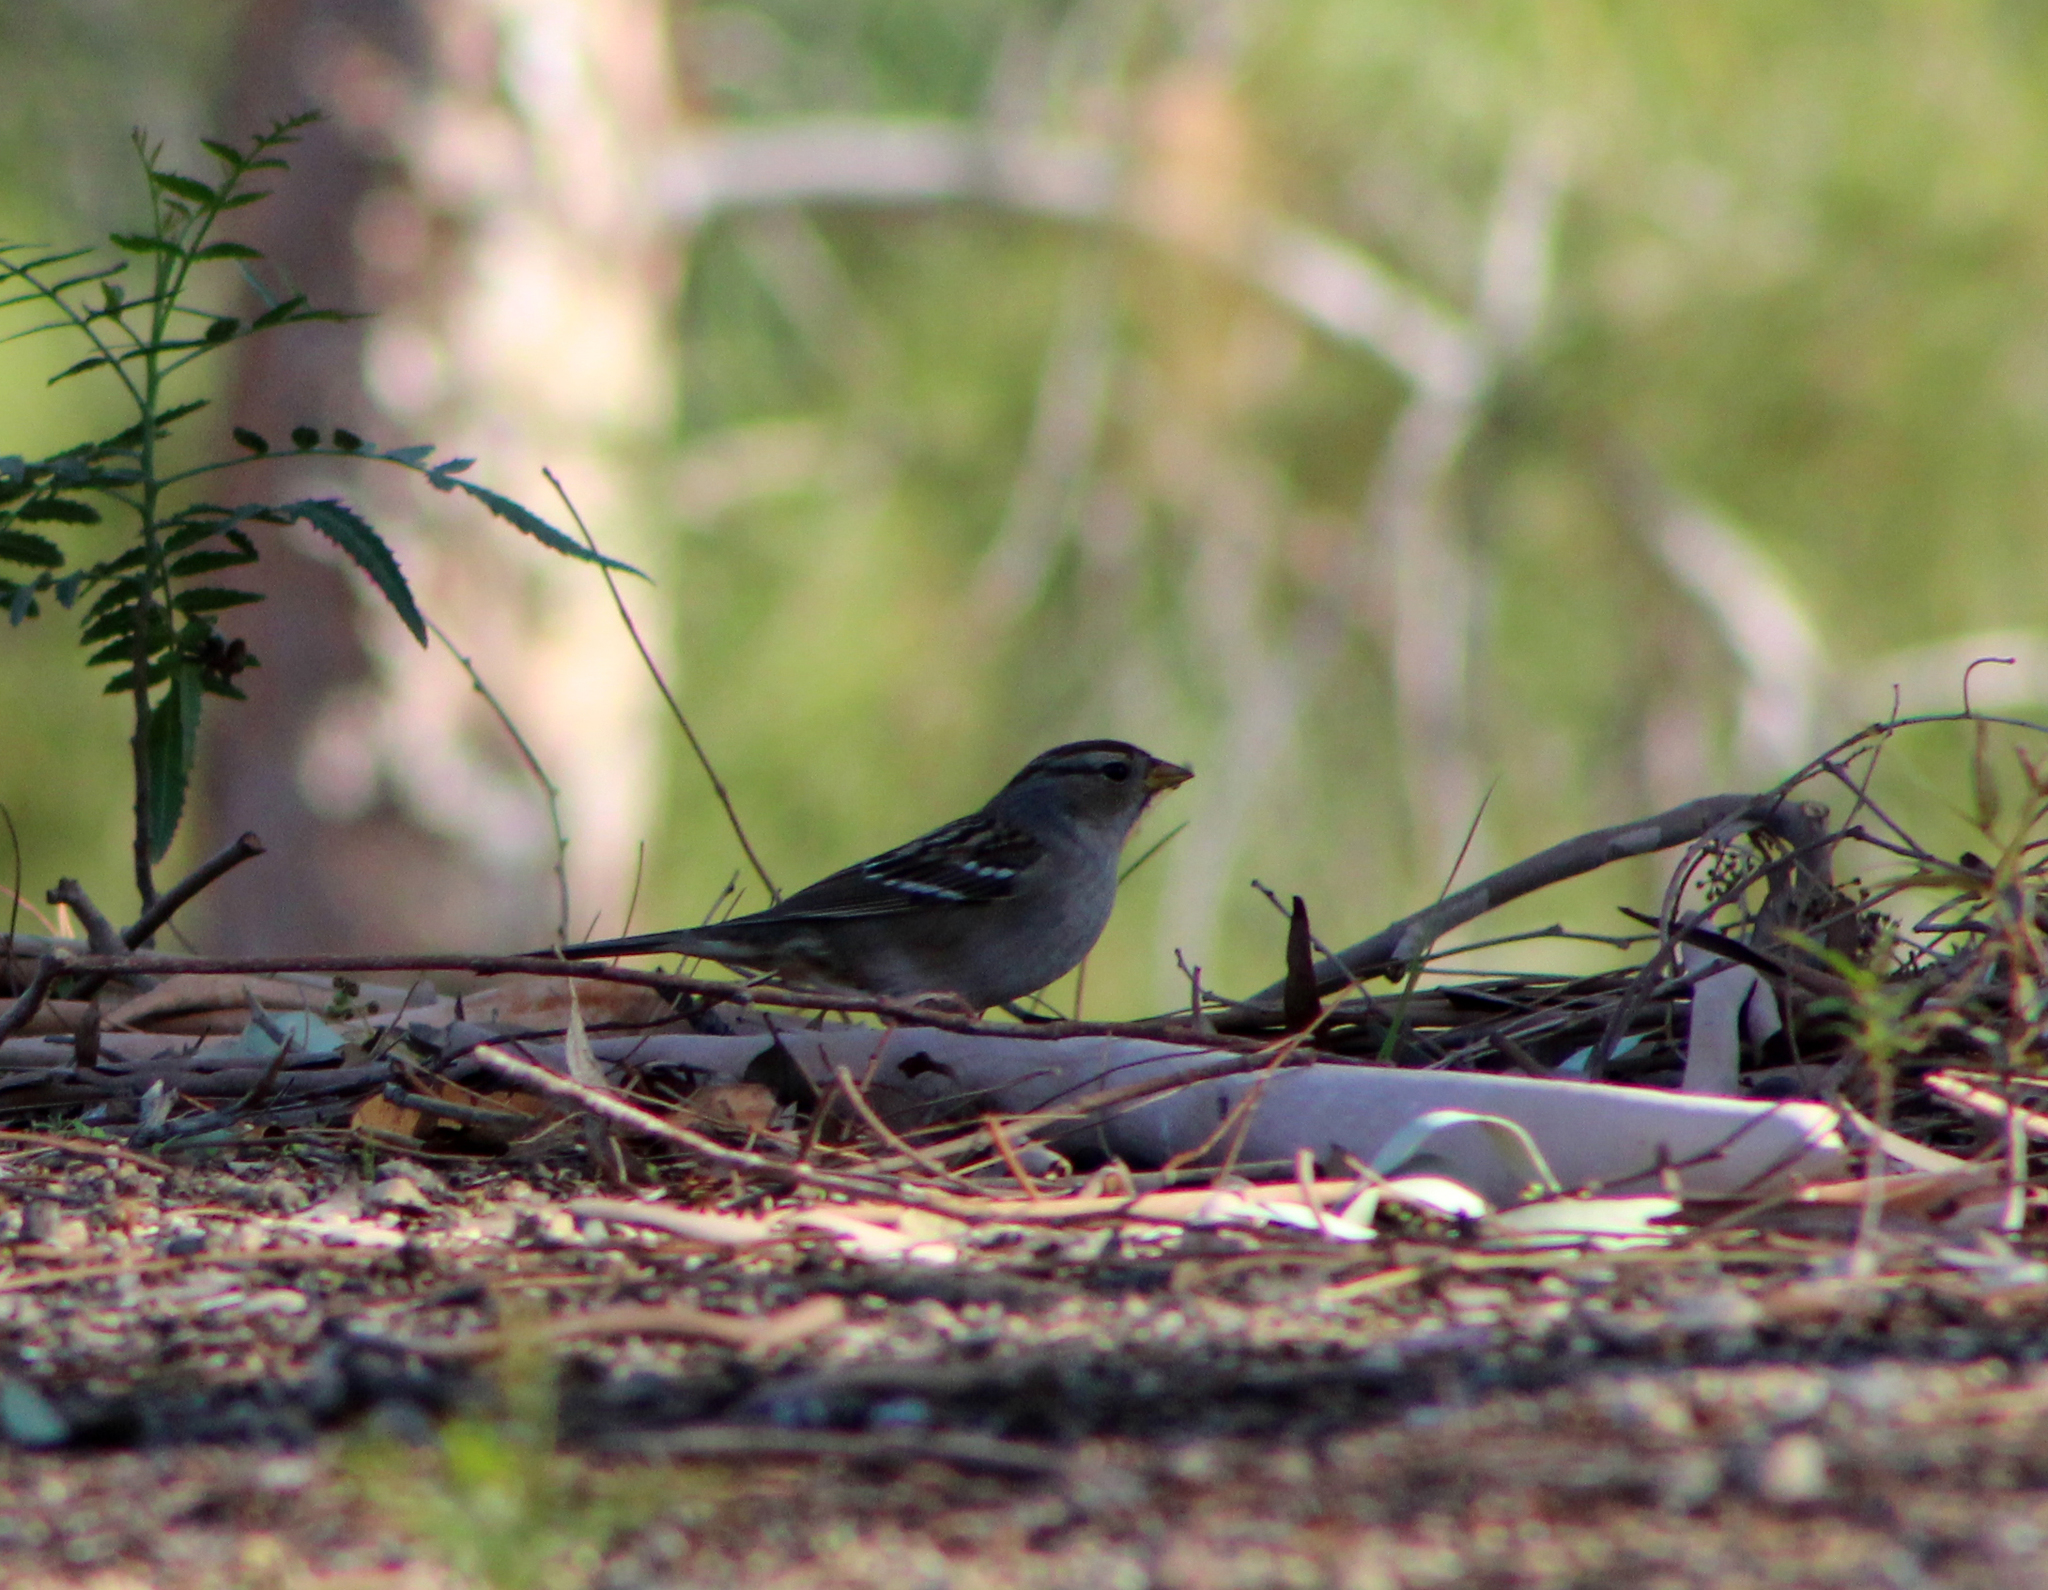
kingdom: Animalia
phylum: Chordata
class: Aves
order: Passeriformes
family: Passerellidae
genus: Zonotrichia
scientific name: Zonotrichia leucophrys
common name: White-crowned sparrow
